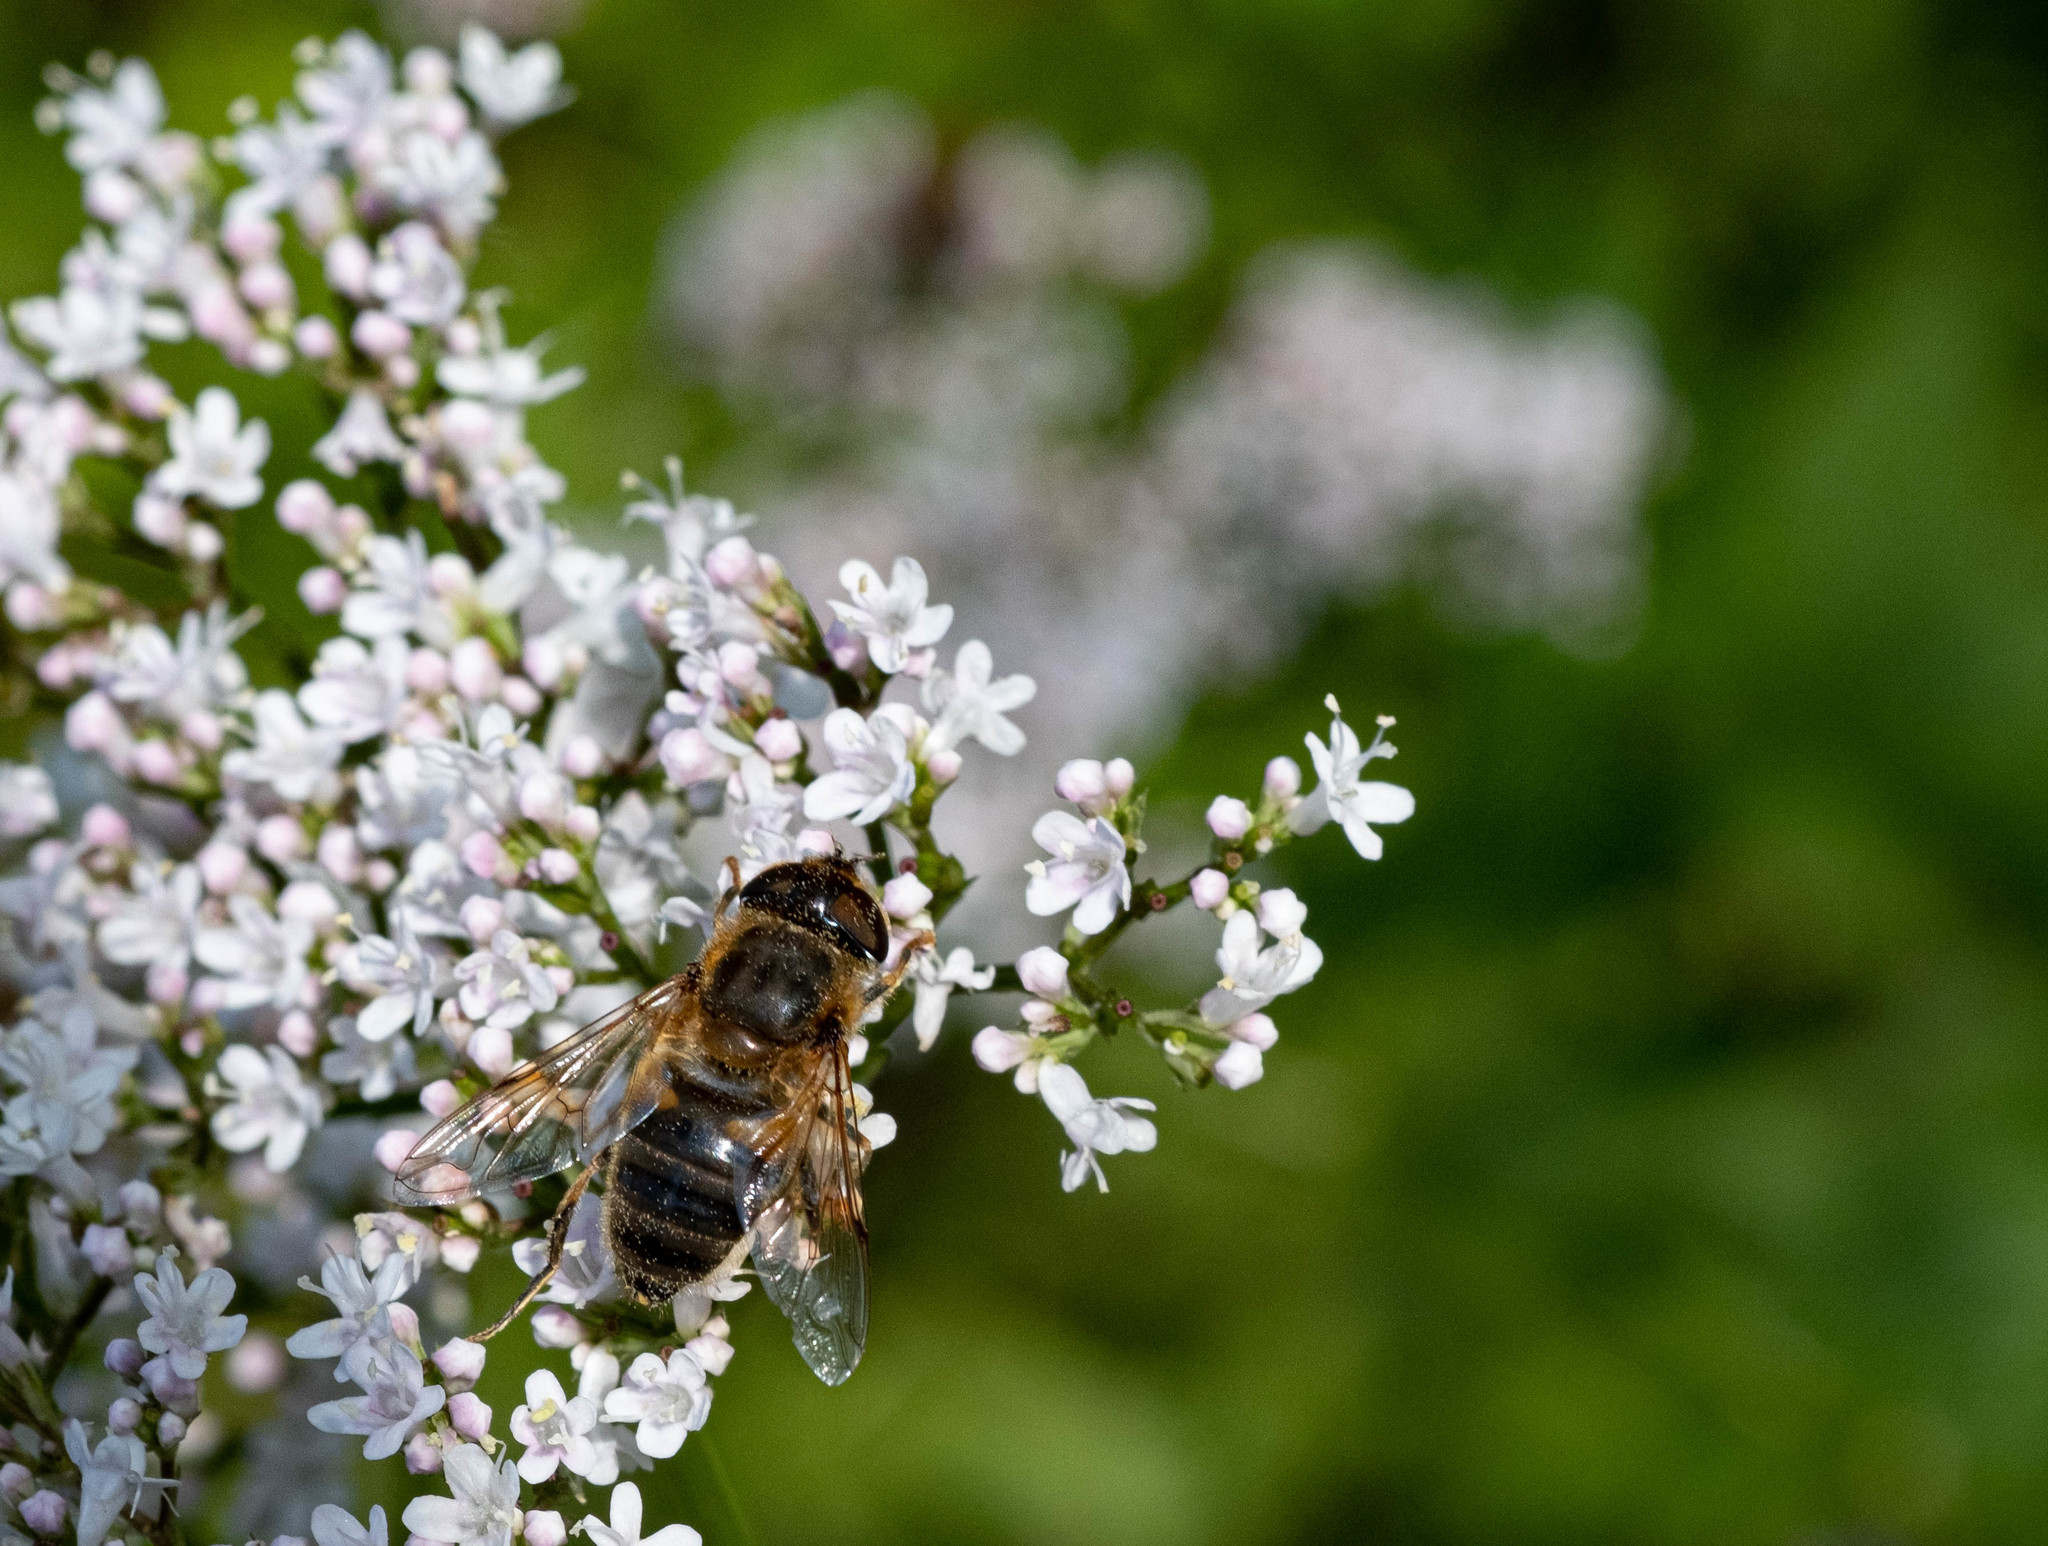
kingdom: Animalia
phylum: Arthropoda
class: Insecta
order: Diptera
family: Syrphidae
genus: Eristalis
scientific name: Eristalis pertinax
